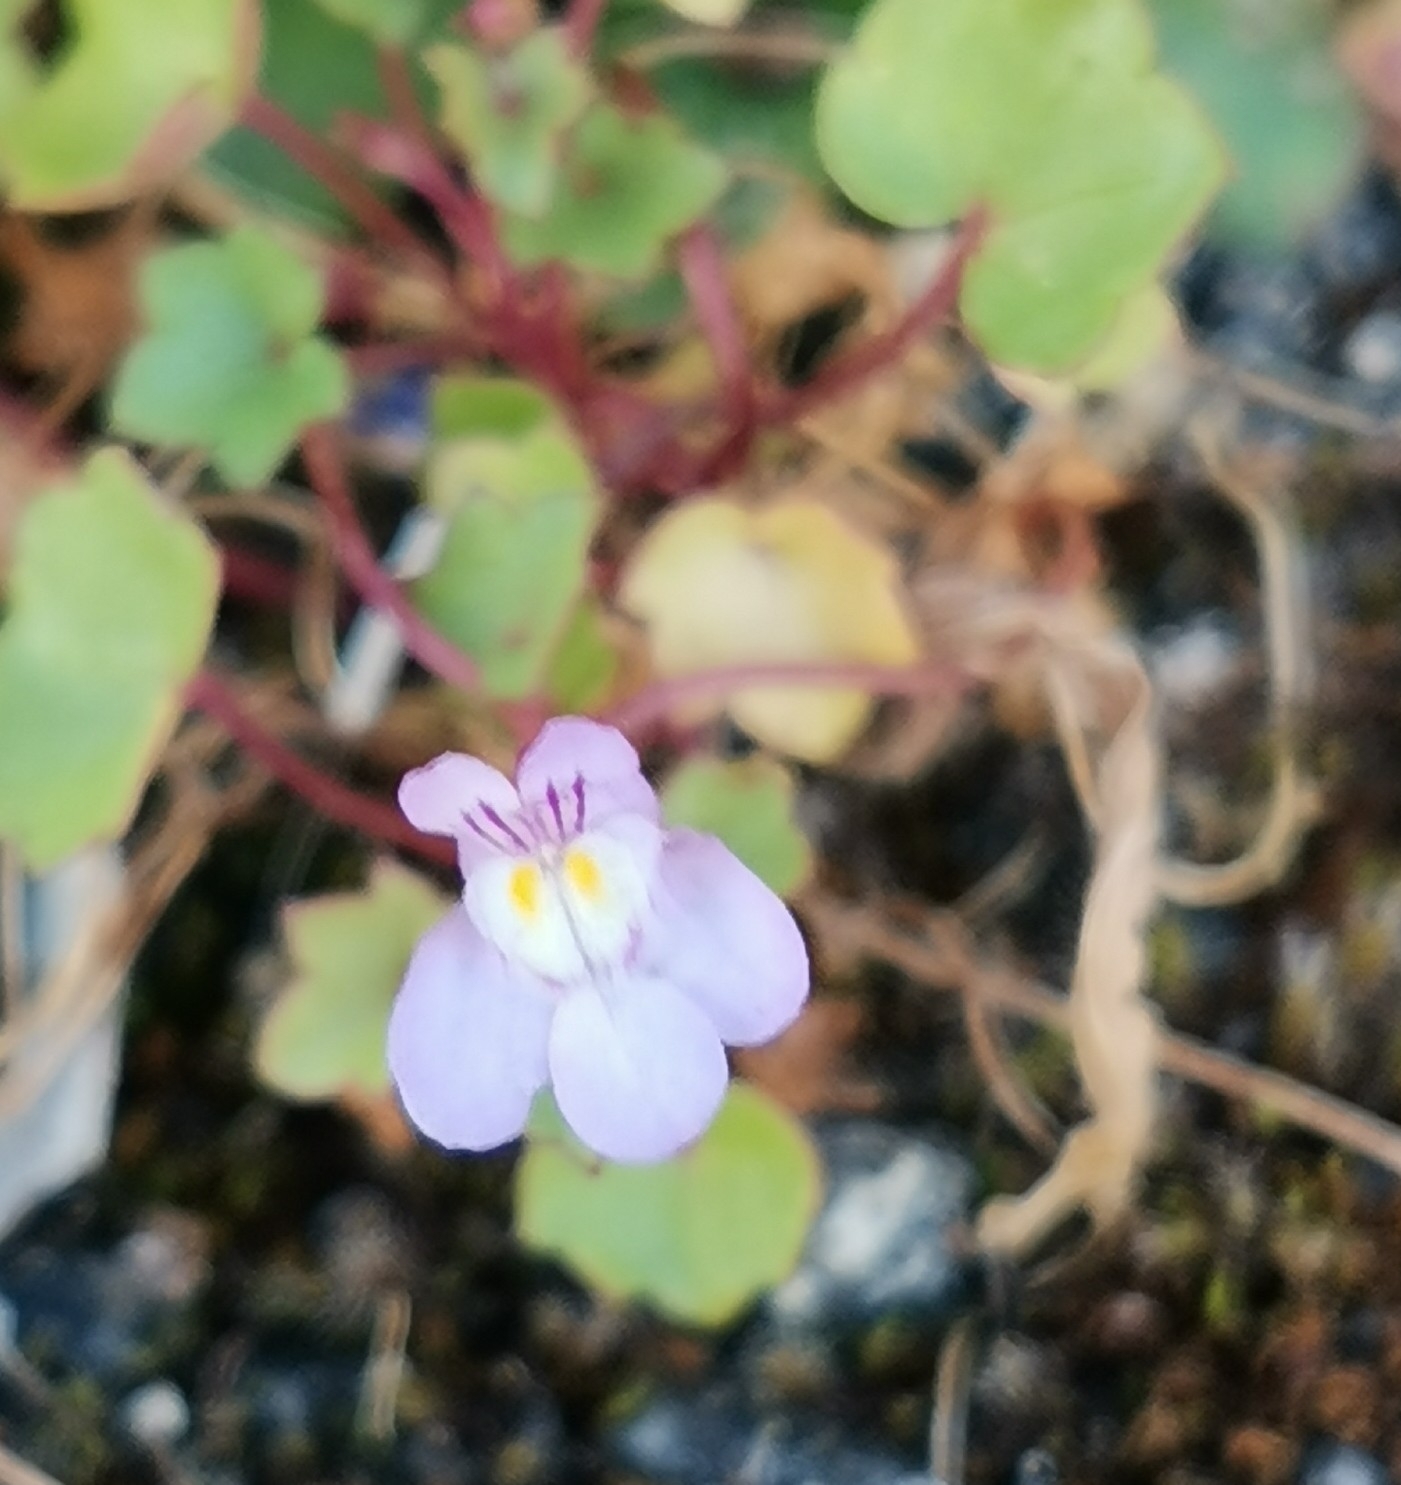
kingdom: Plantae
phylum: Tracheophyta
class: Magnoliopsida
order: Lamiales
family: Plantaginaceae
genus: Cymbalaria
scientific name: Cymbalaria muralis
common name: Ivy-leaved toadflax
